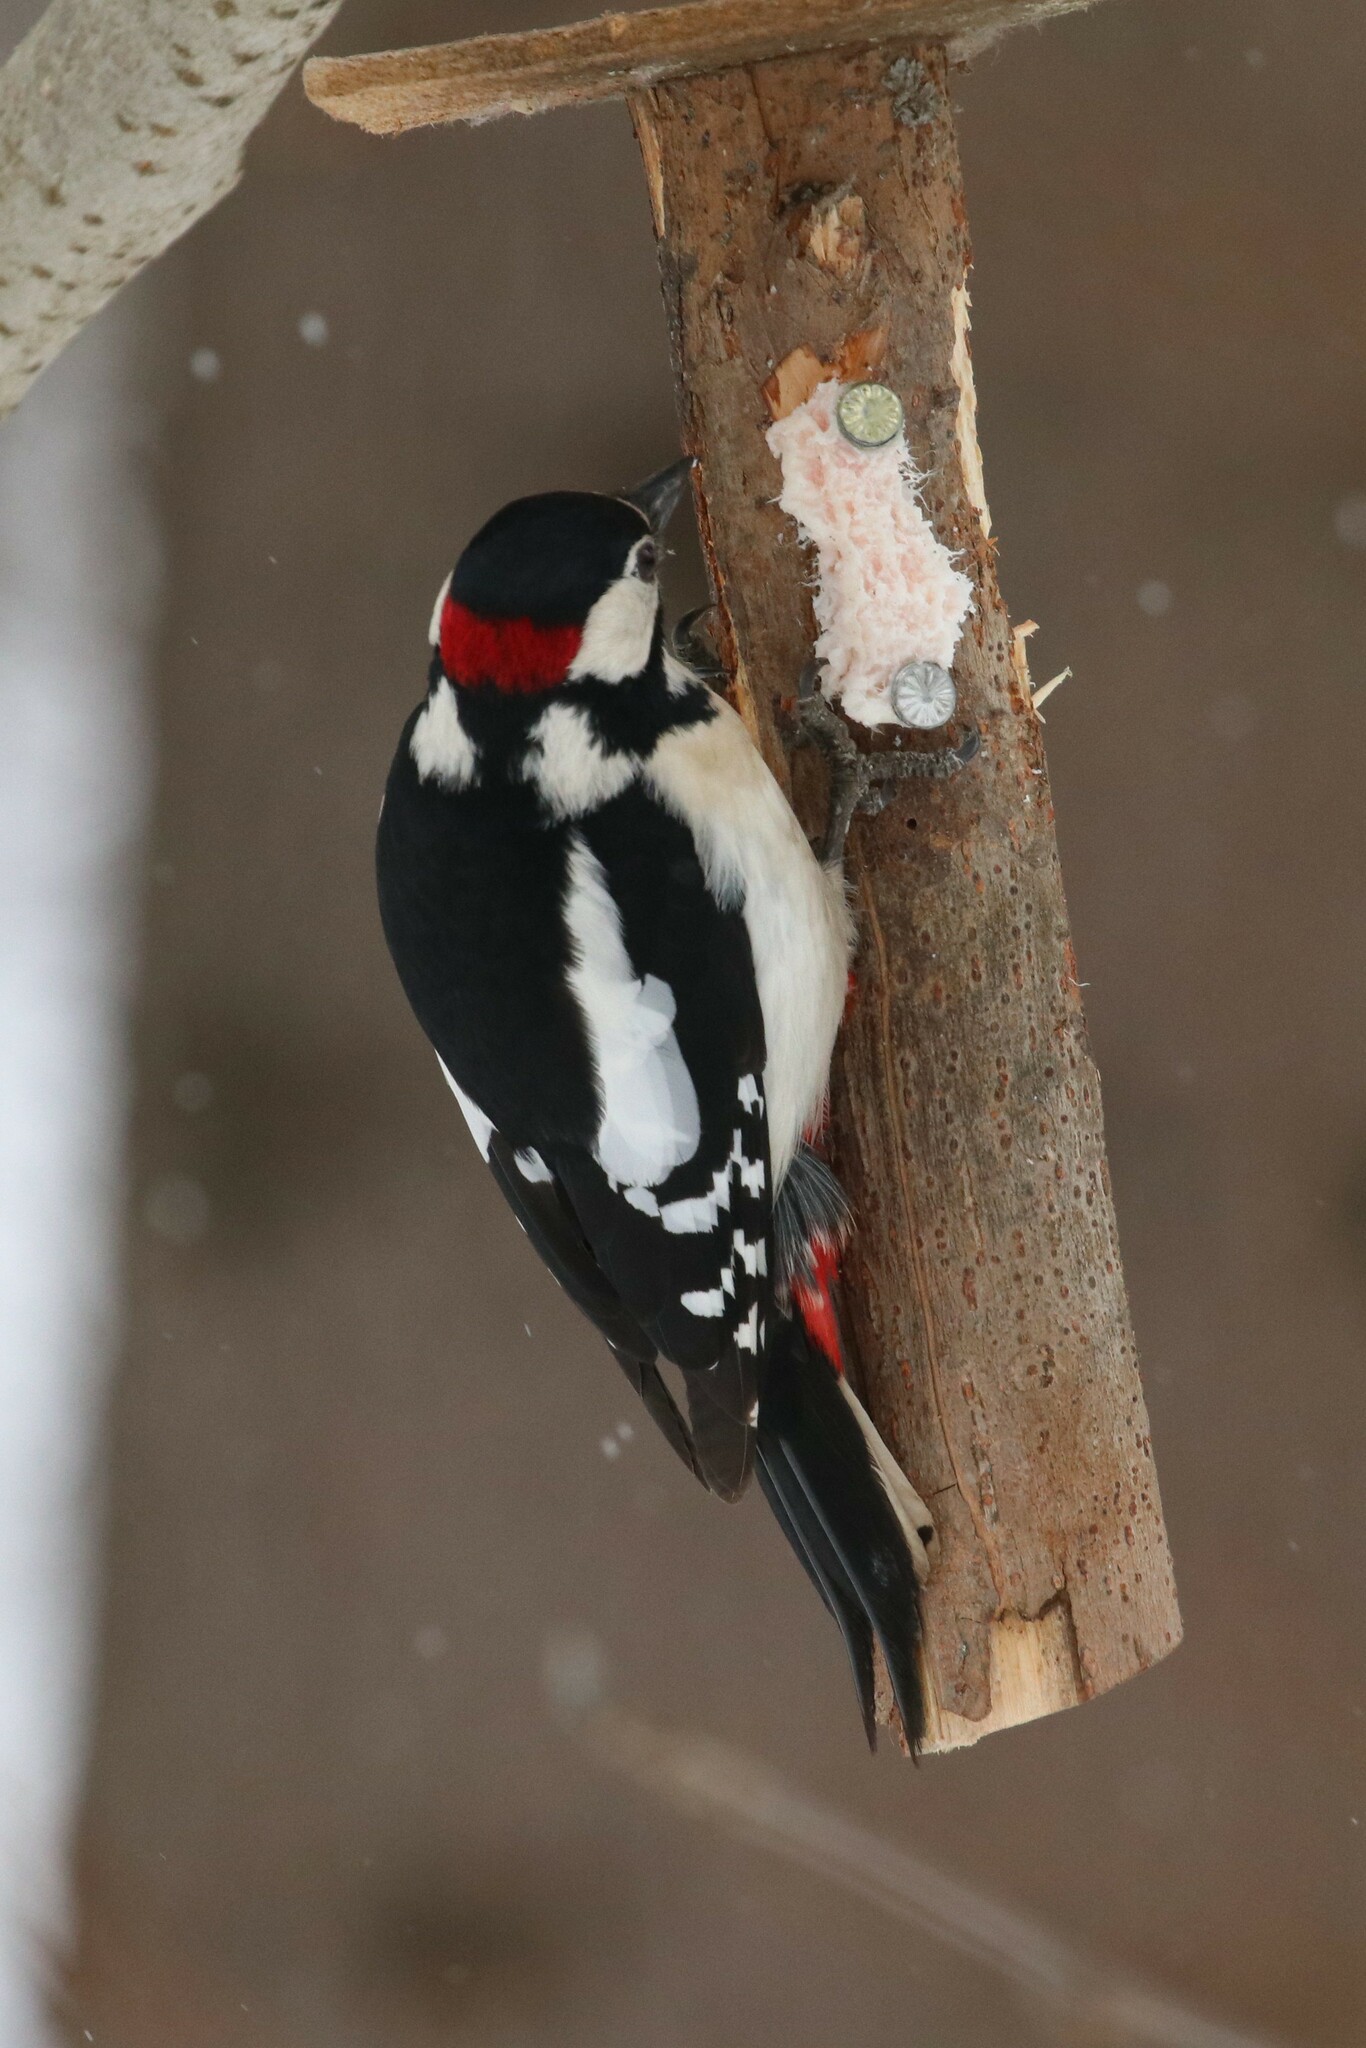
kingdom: Animalia
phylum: Chordata
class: Aves
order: Piciformes
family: Picidae
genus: Dendrocopos
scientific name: Dendrocopos major
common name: Great spotted woodpecker
